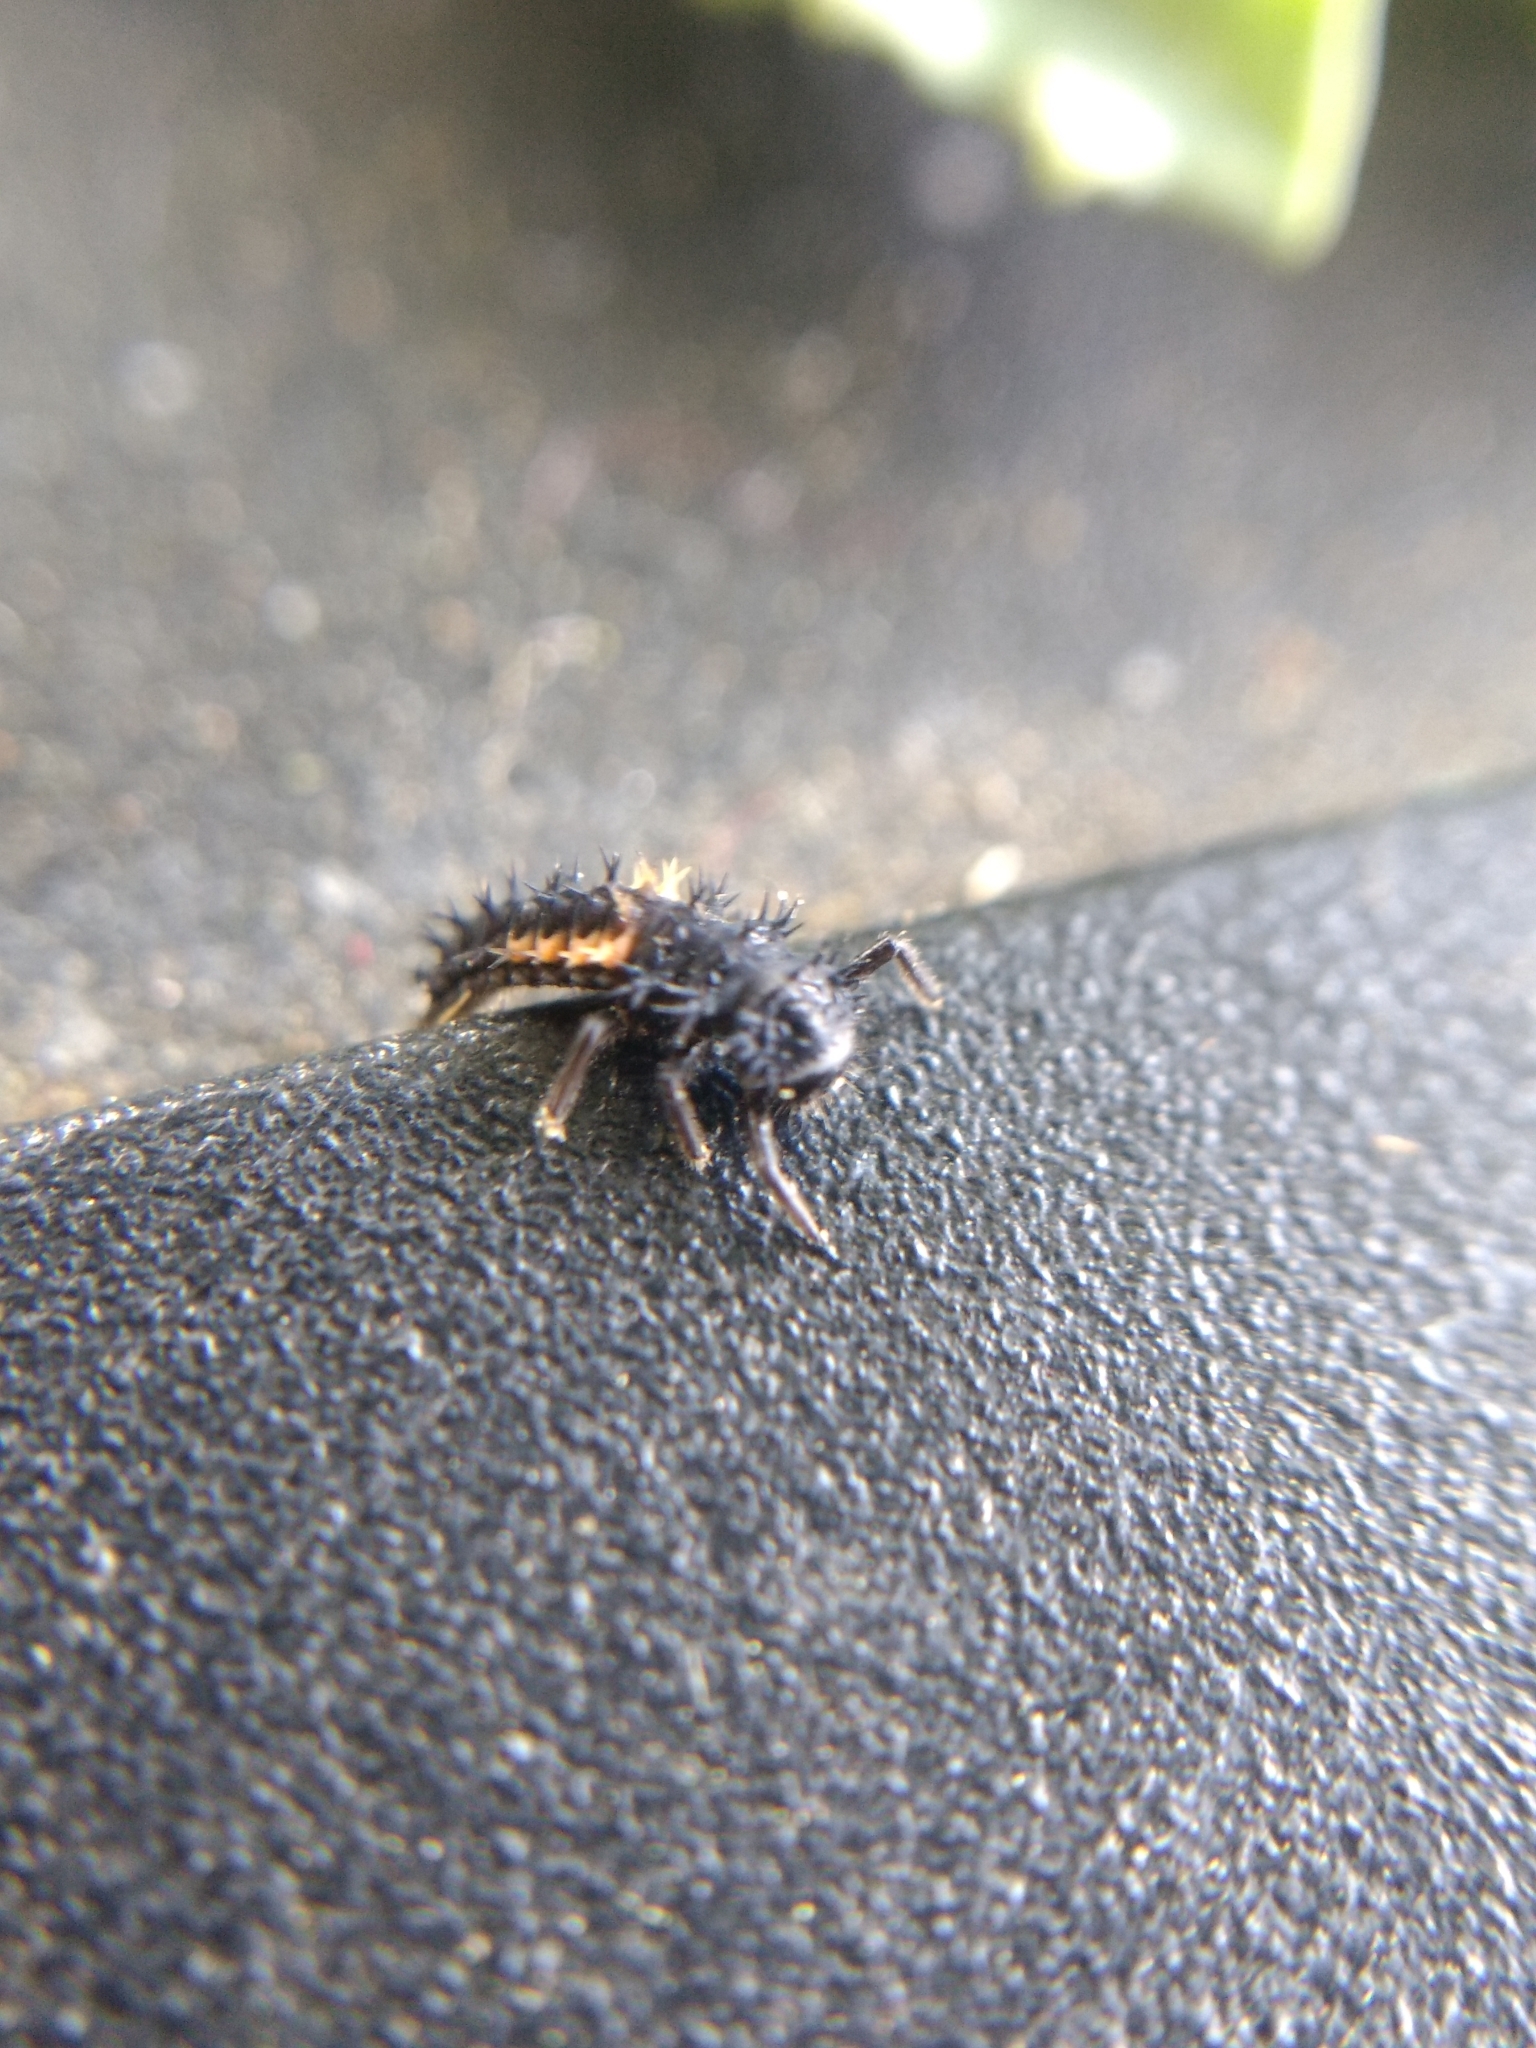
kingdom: Animalia
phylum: Arthropoda
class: Insecta
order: Coleoptera
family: Coccinellidae
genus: Harmonia
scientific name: Harmonia axyridis
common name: Harlequin ladybird
